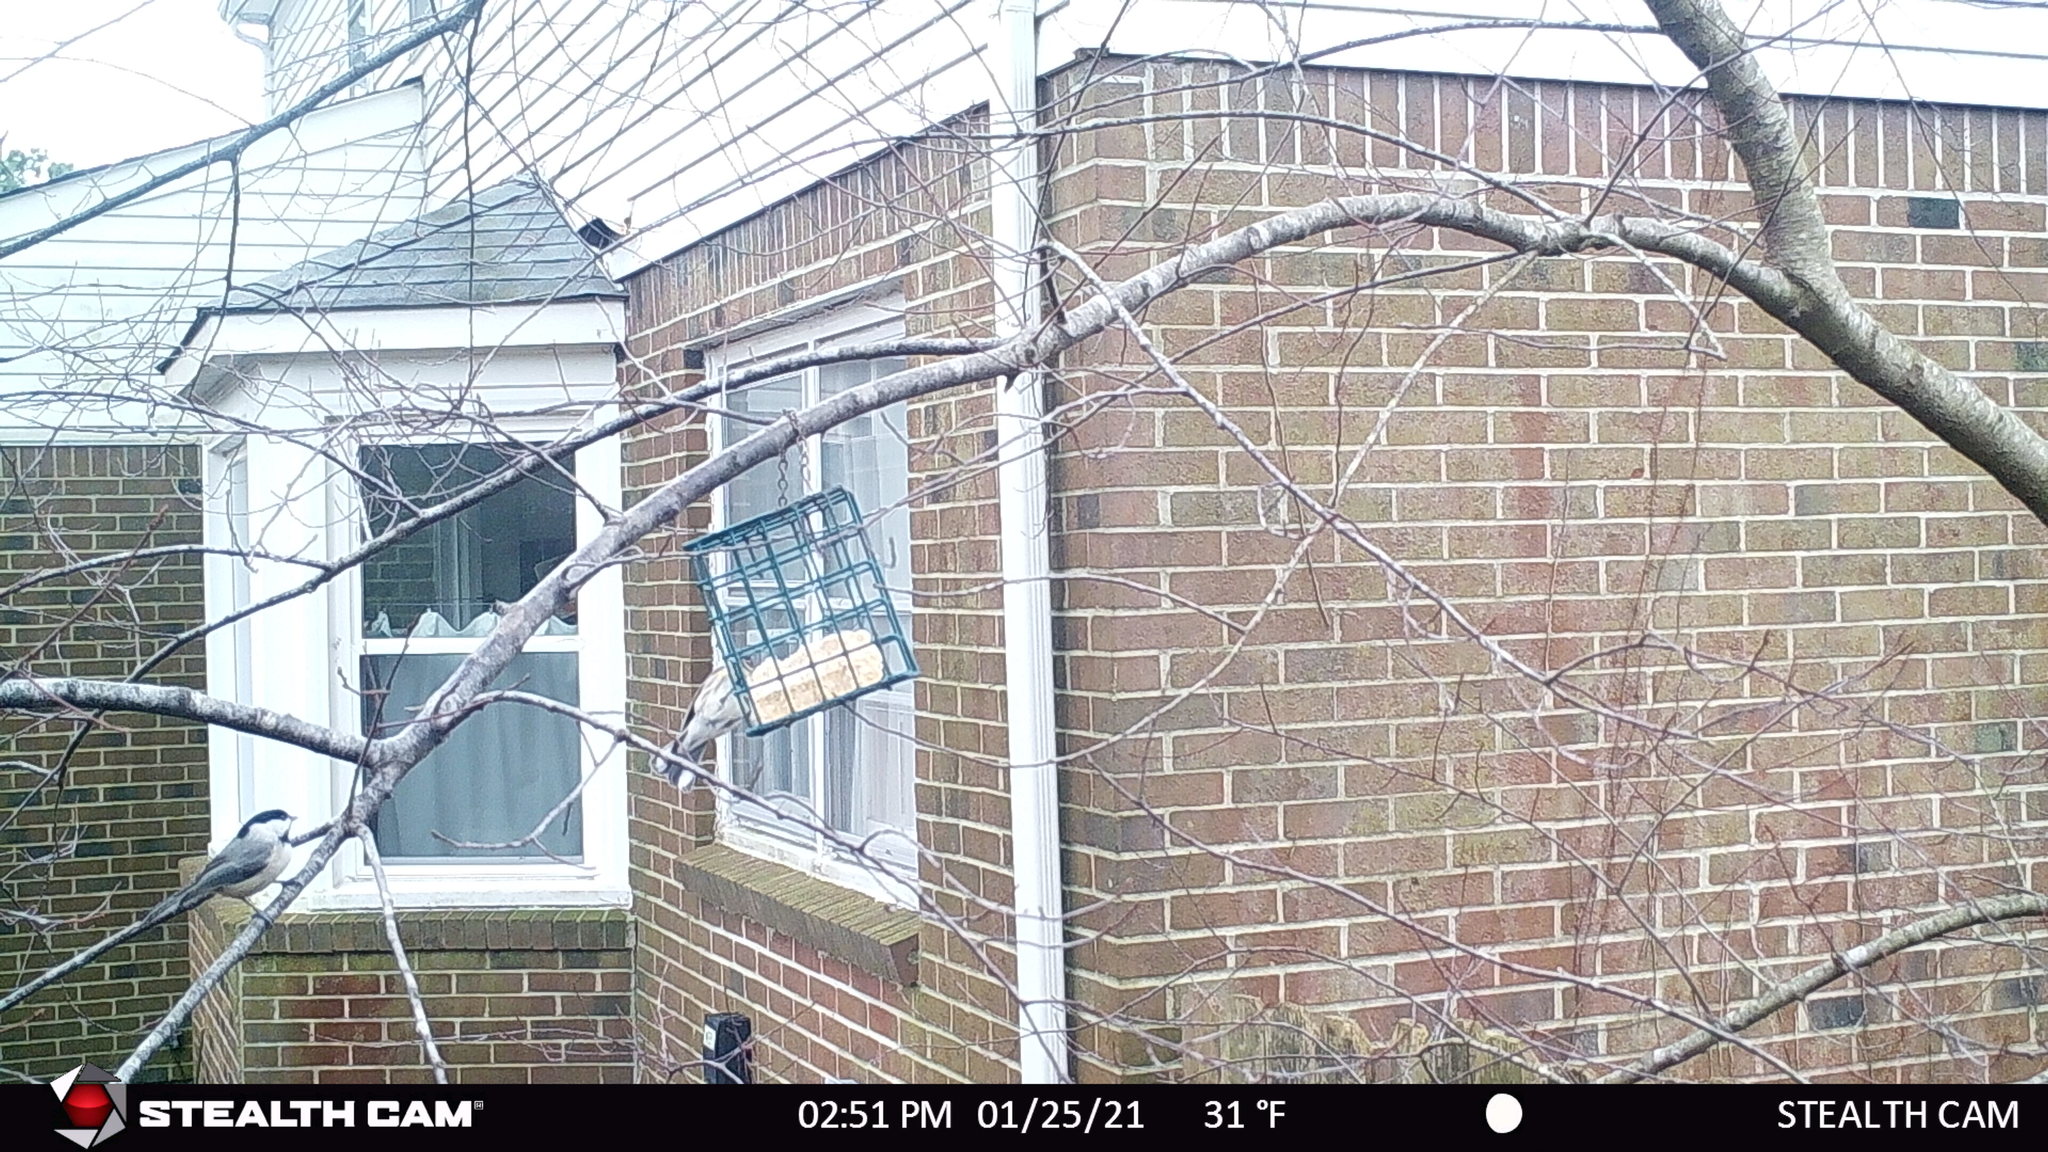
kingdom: Animalia
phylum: Chordata
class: Aves
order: Passeriformes
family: Paridae
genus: Poecile
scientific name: Poecile carolinensis
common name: Carolina chickadee
